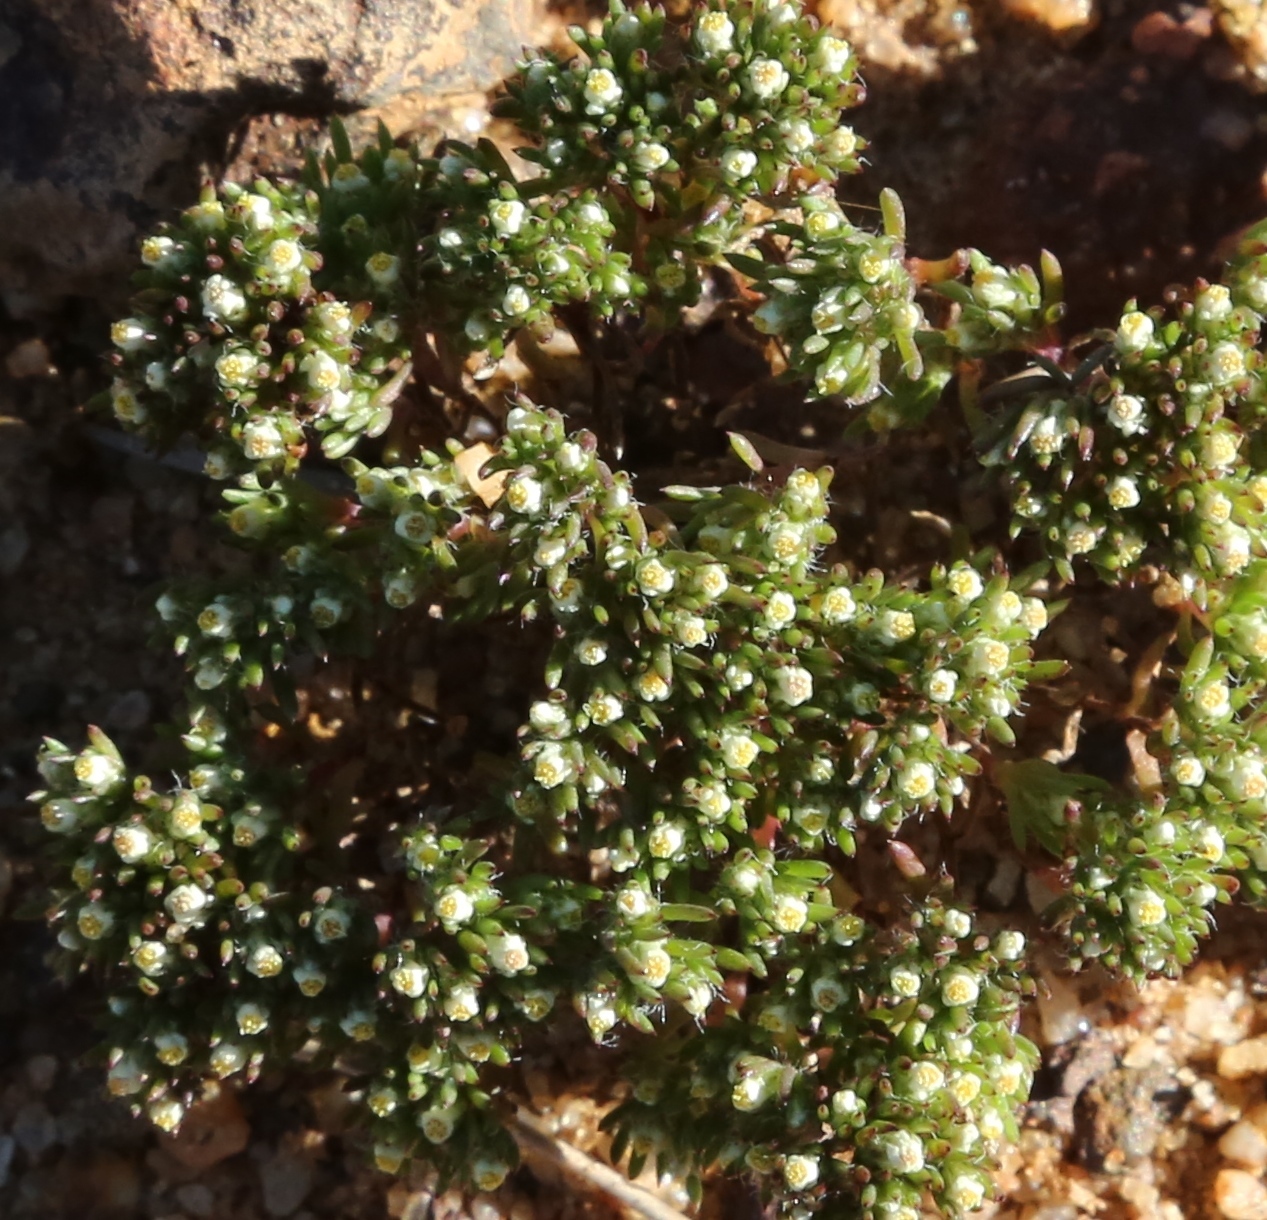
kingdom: Plantae
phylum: Tracheophyta
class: Magnoliopsida
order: Asterales
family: Asteraceae
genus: Hyalosperma
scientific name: Hyalosperma demissum
